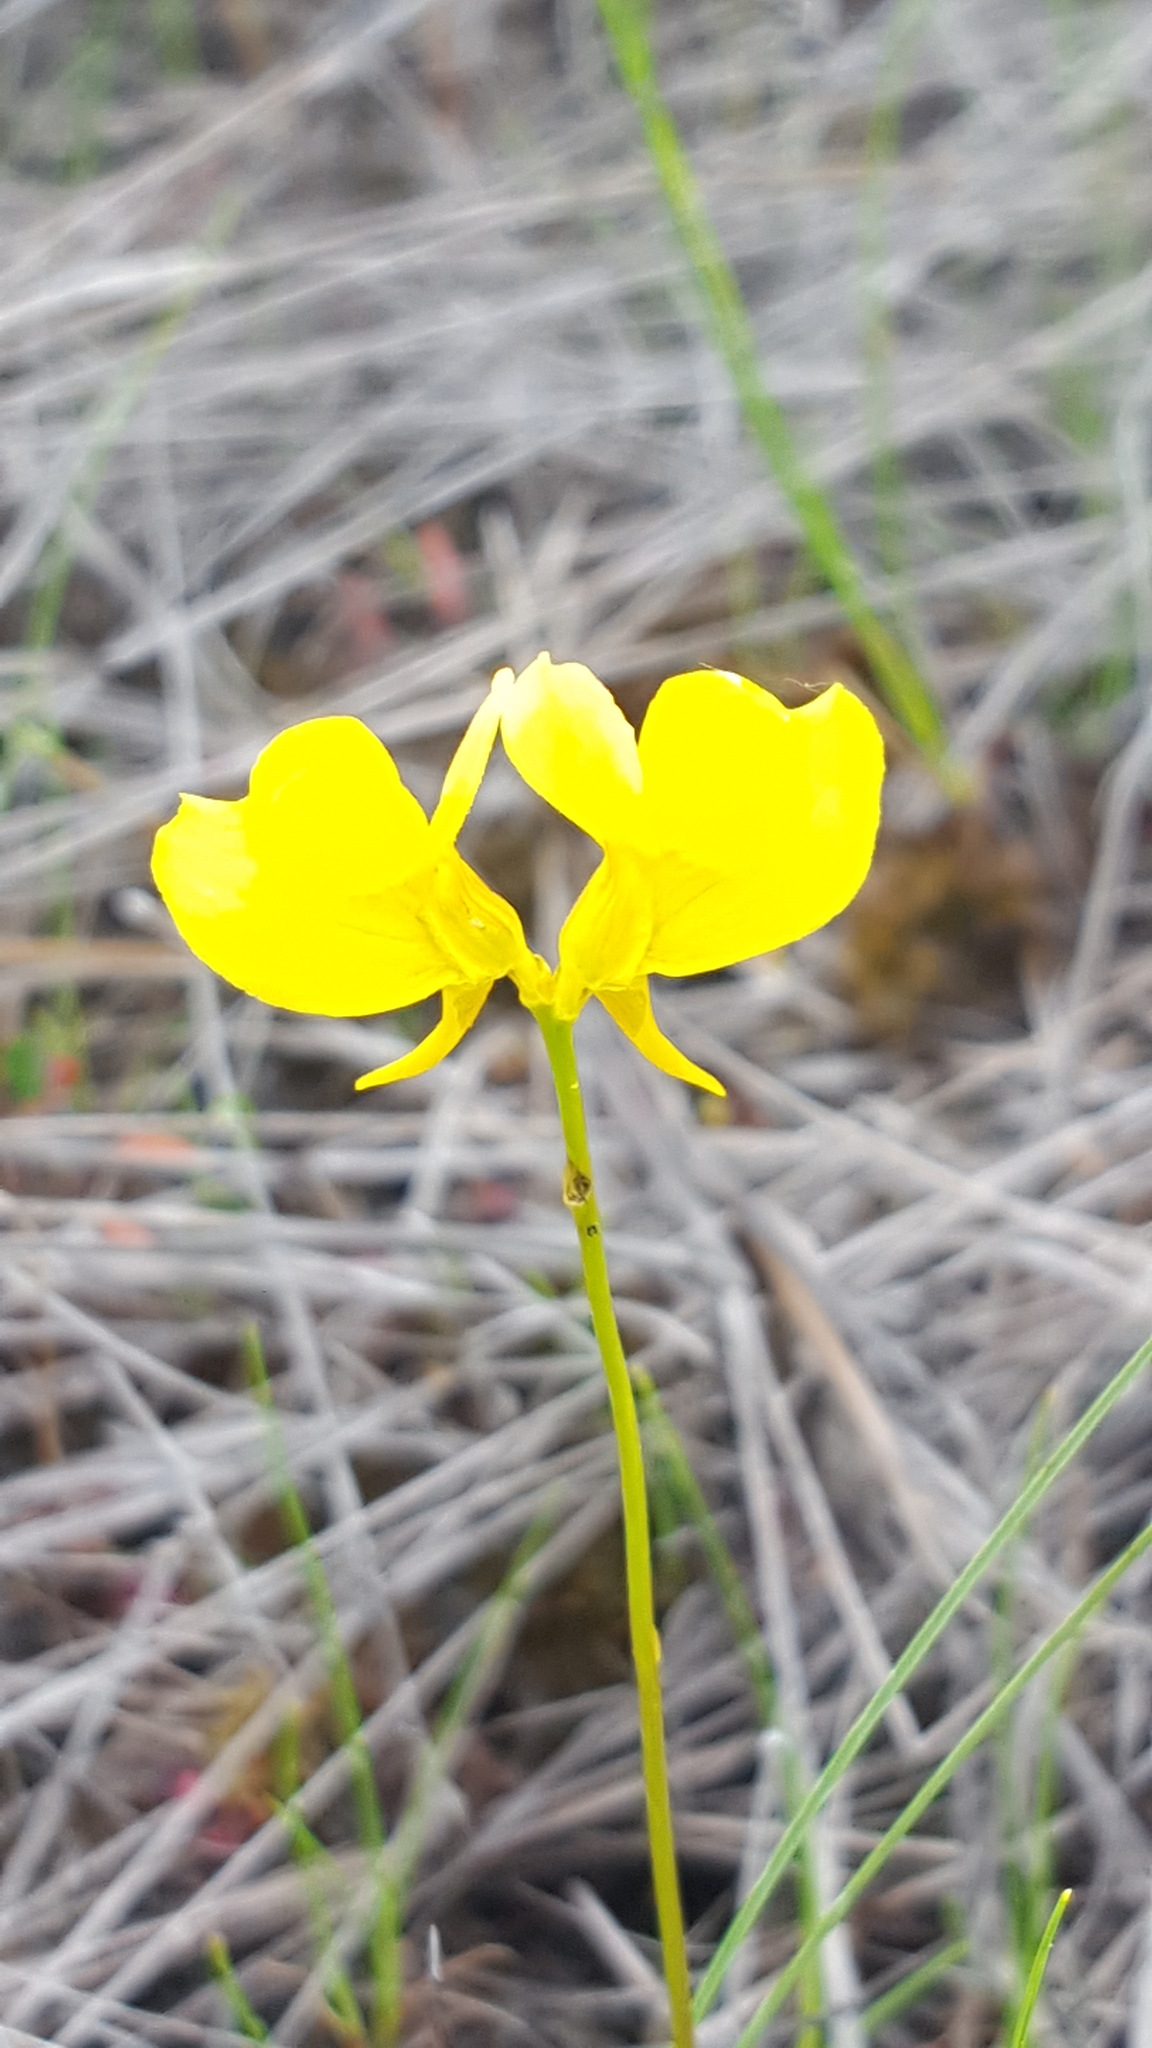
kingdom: Plantae
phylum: Tracheophyta
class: Magnoliopsida
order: Lamiales
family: Lentibulariaceae
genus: Utricularia
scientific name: Utricularia cornuta
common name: Horned bladderwort
